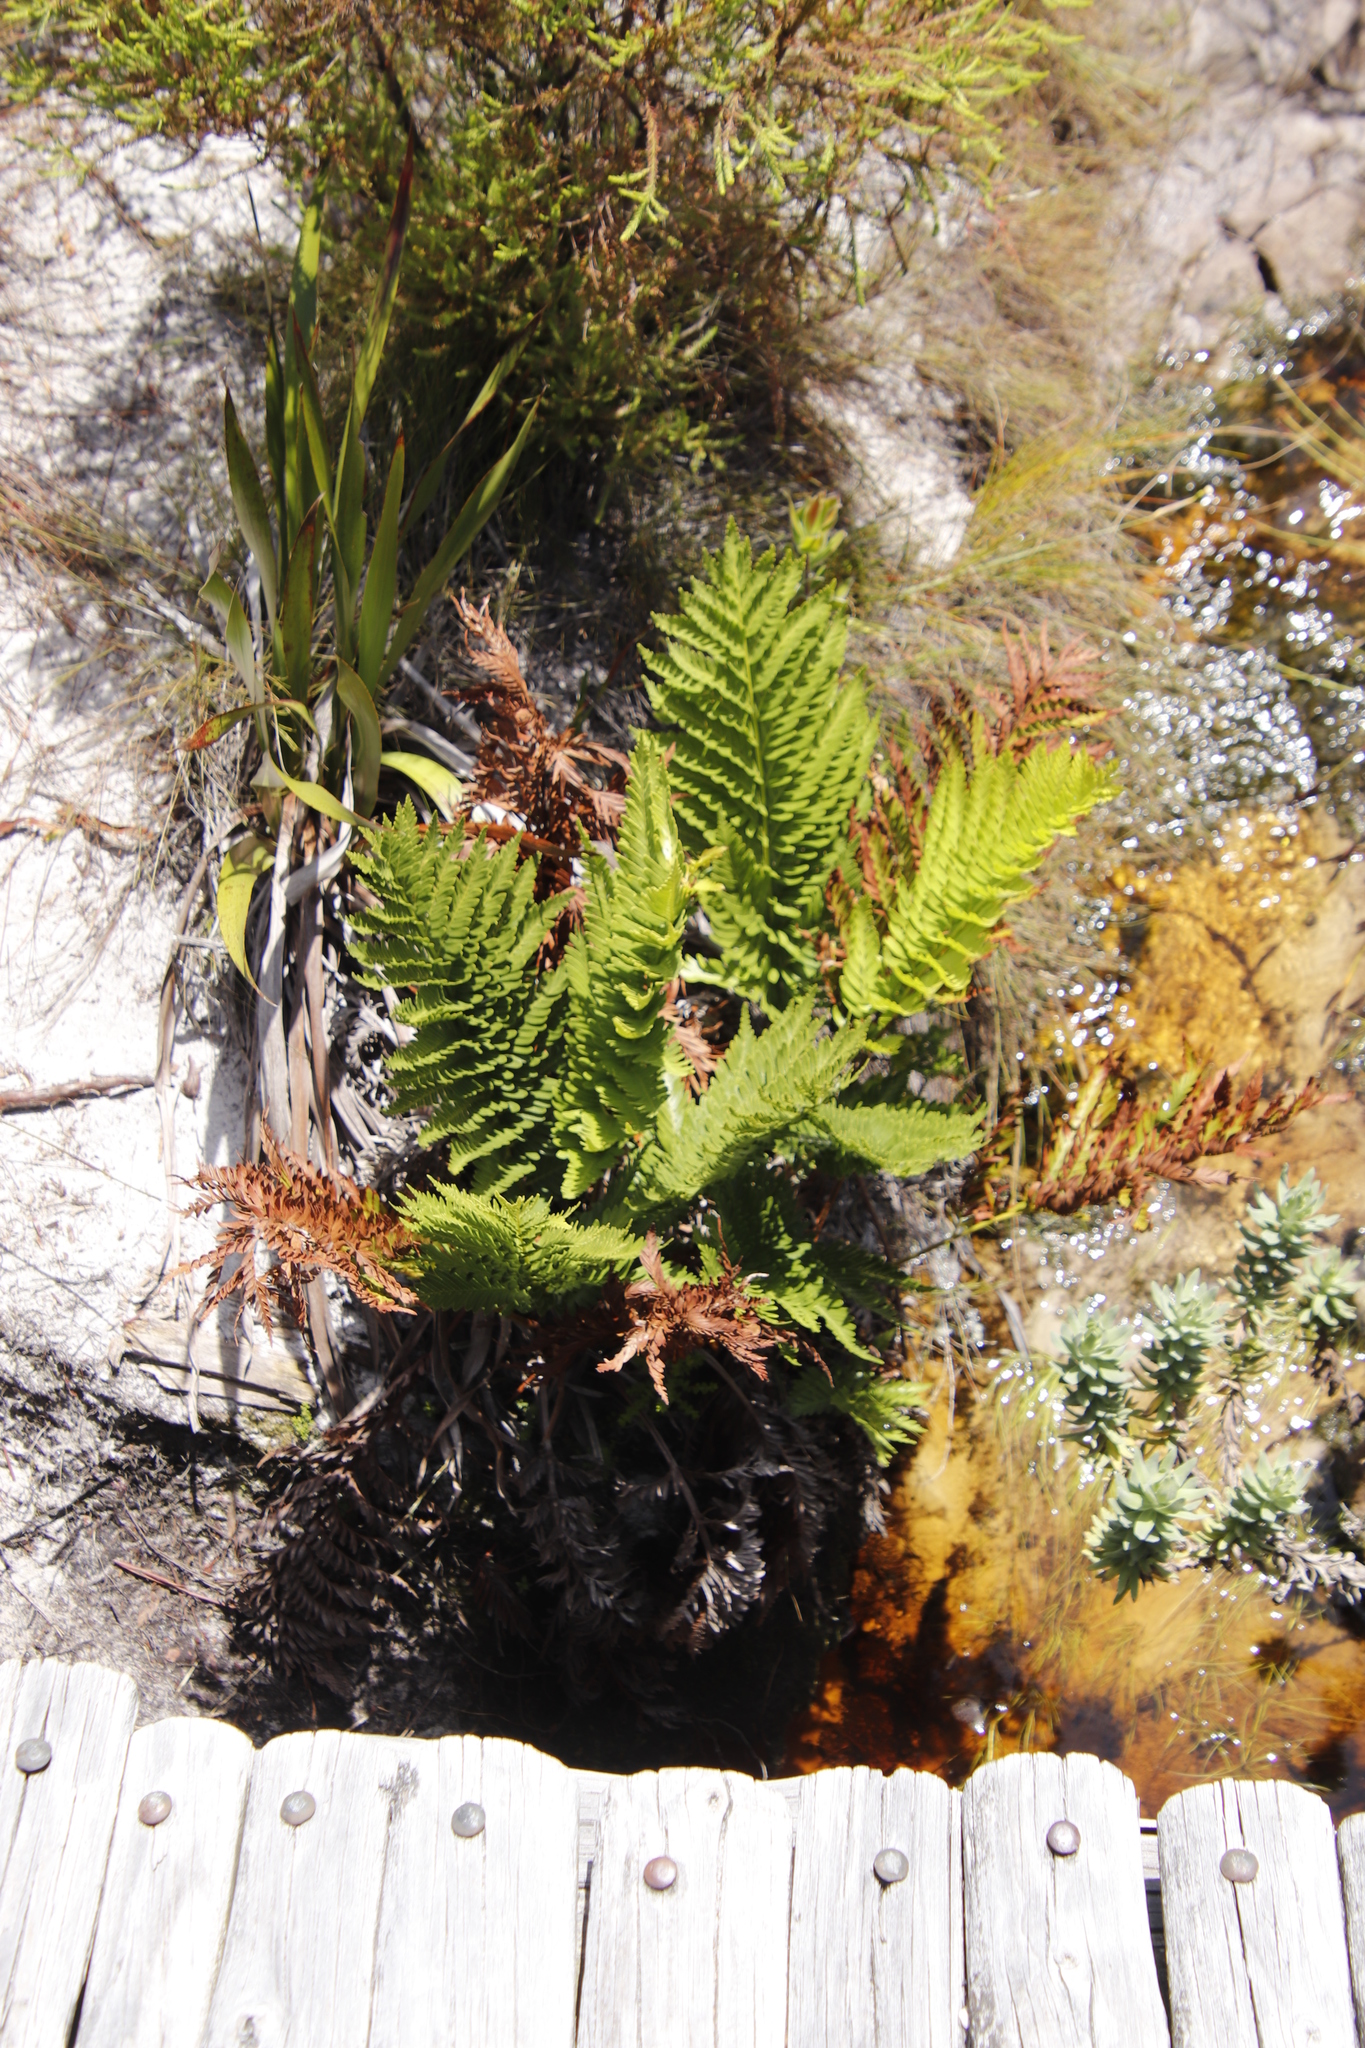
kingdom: Plantae
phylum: Tracheophyta
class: Polypodiopsida
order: Osmundales
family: Osmundaceae
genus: Todea
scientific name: Todea barbara
